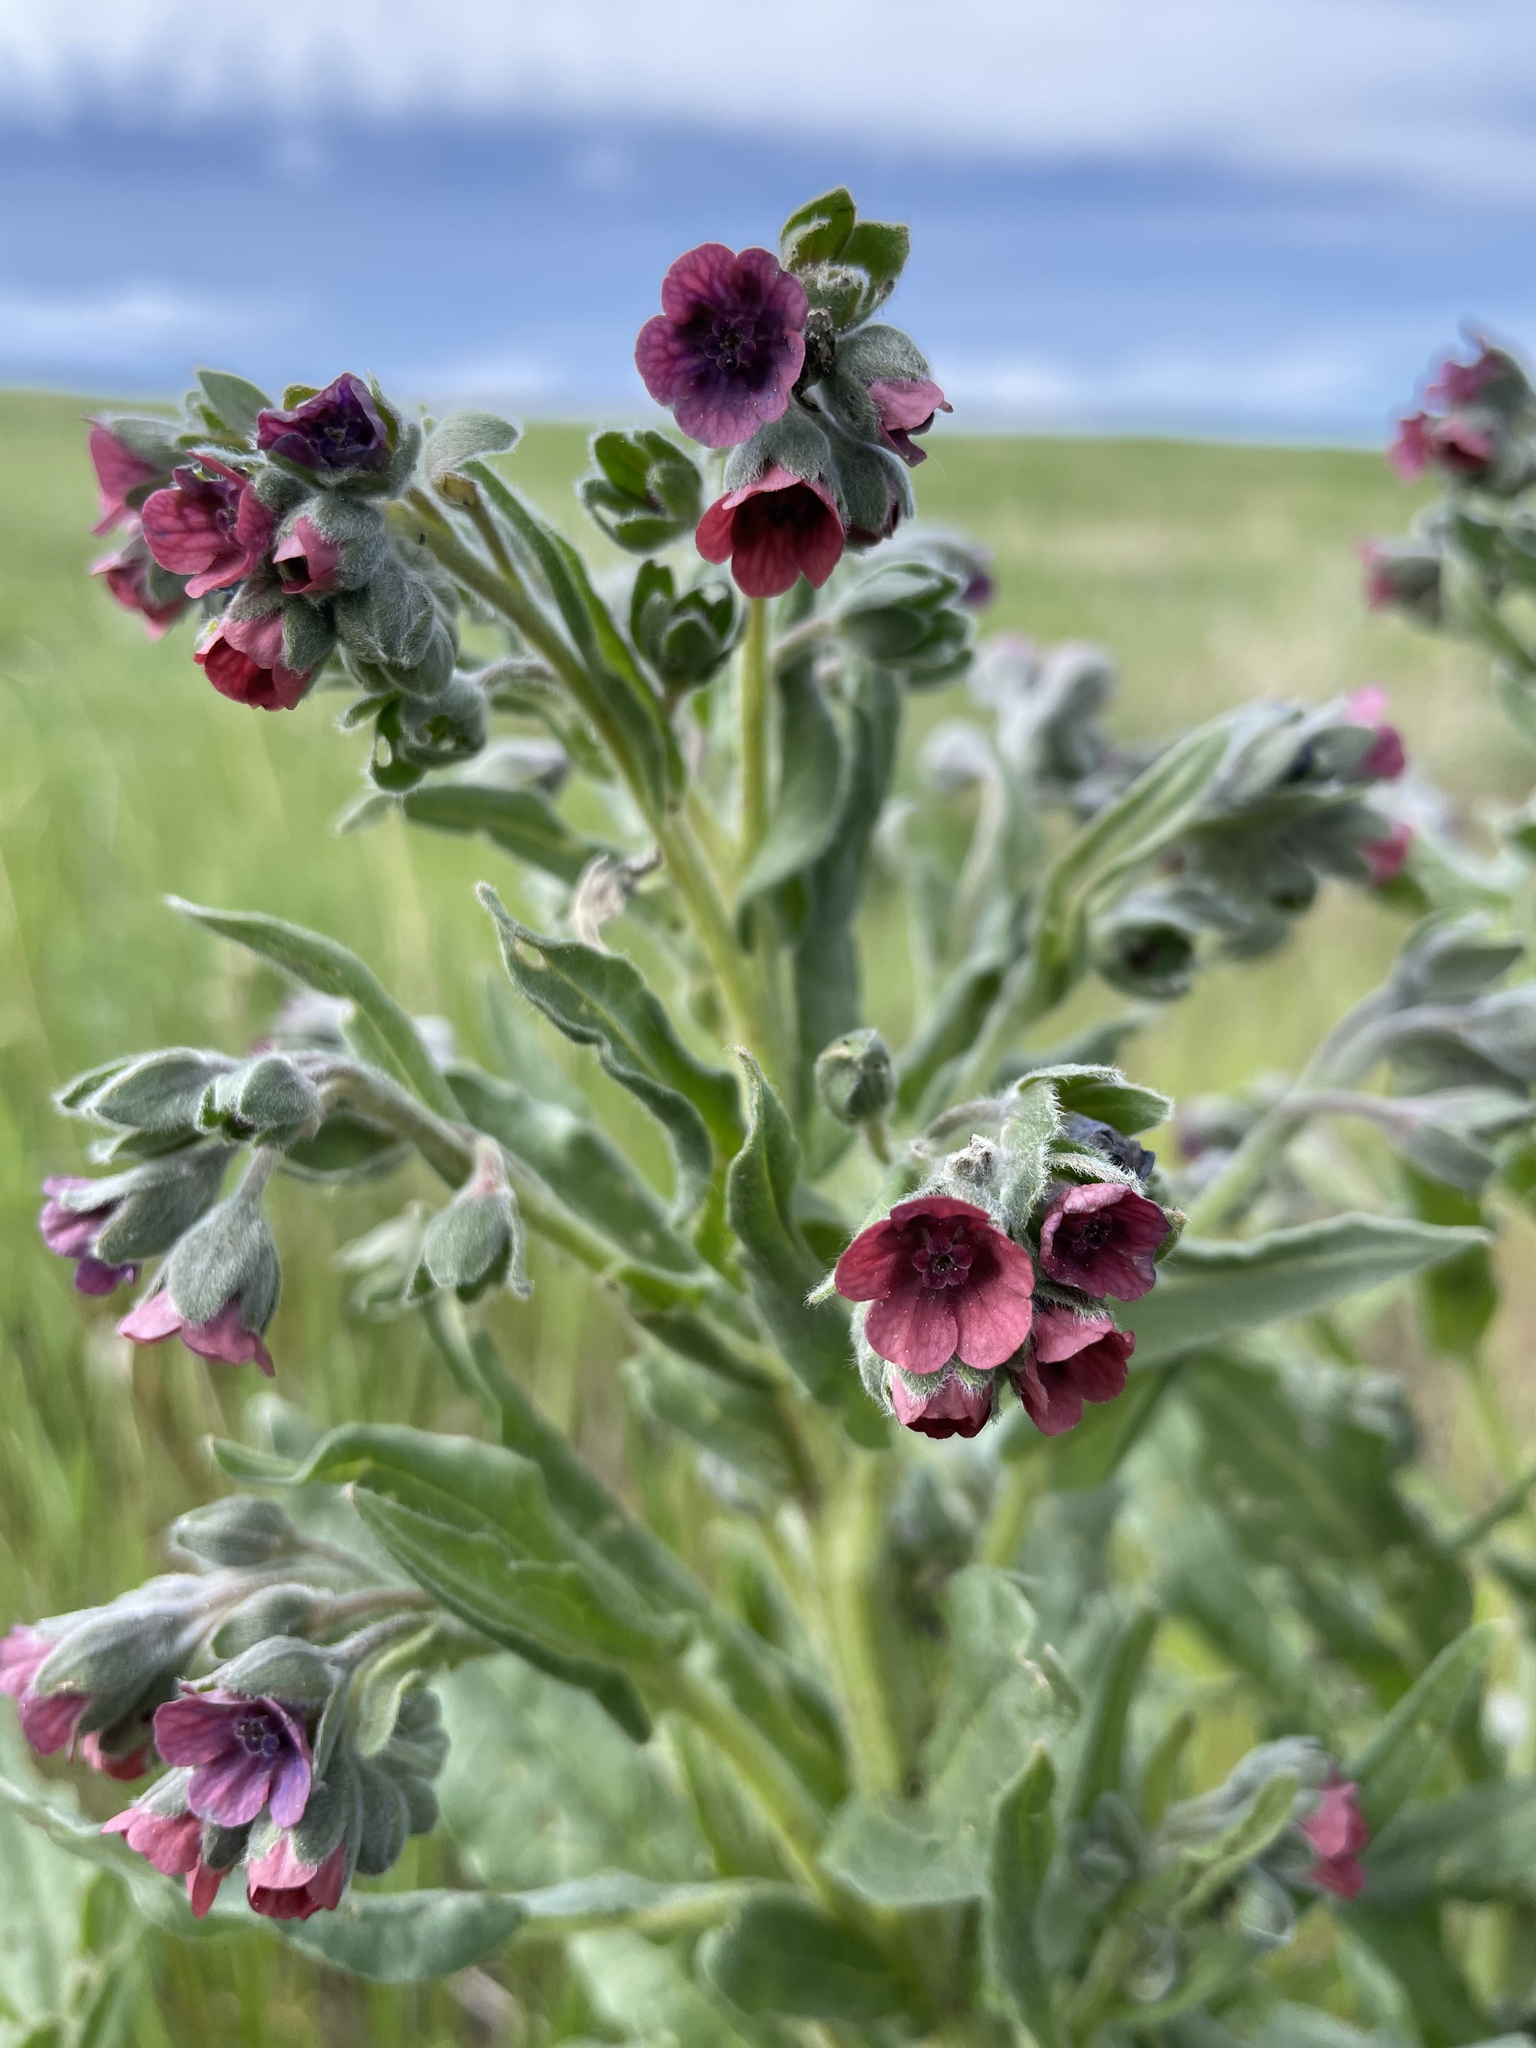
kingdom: Plantae
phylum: Tracheophyta
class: Magnoliopsida
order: Boraginales
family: Boraginaceae
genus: Cynoglossum
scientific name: Cynoglossum officinale
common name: Hound's-tongue
